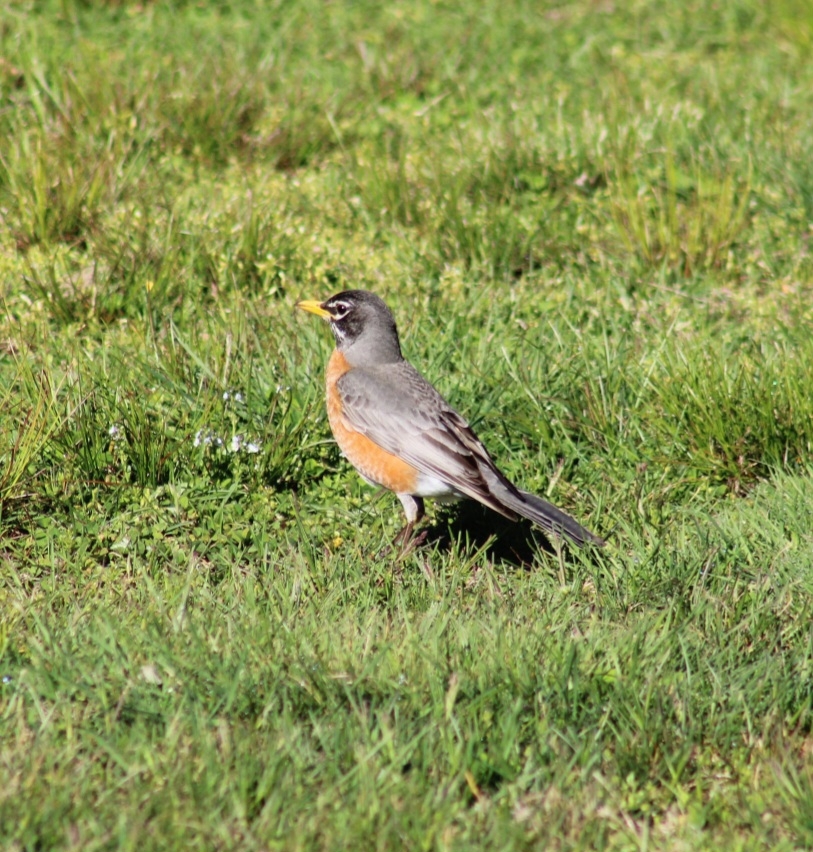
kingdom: Animalia
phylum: Chordata
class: Aves
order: Passeriformes
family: Turdidae
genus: Turdus
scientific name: Turdus migratorius
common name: American robin
